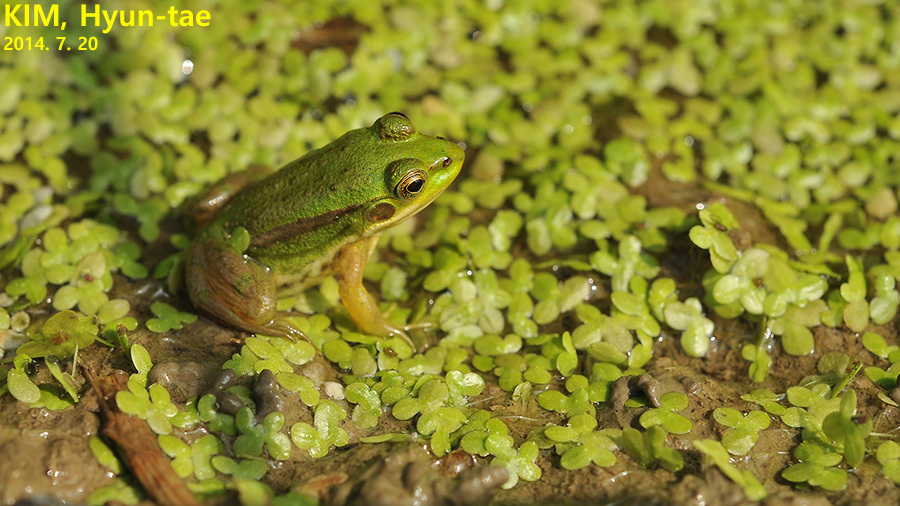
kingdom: Animalia
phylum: Chordata
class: Amphibia
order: Anura
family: Ranidae
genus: Pelophylax
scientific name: Pelophylax chosenicus
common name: Gold-spotted pond frog
